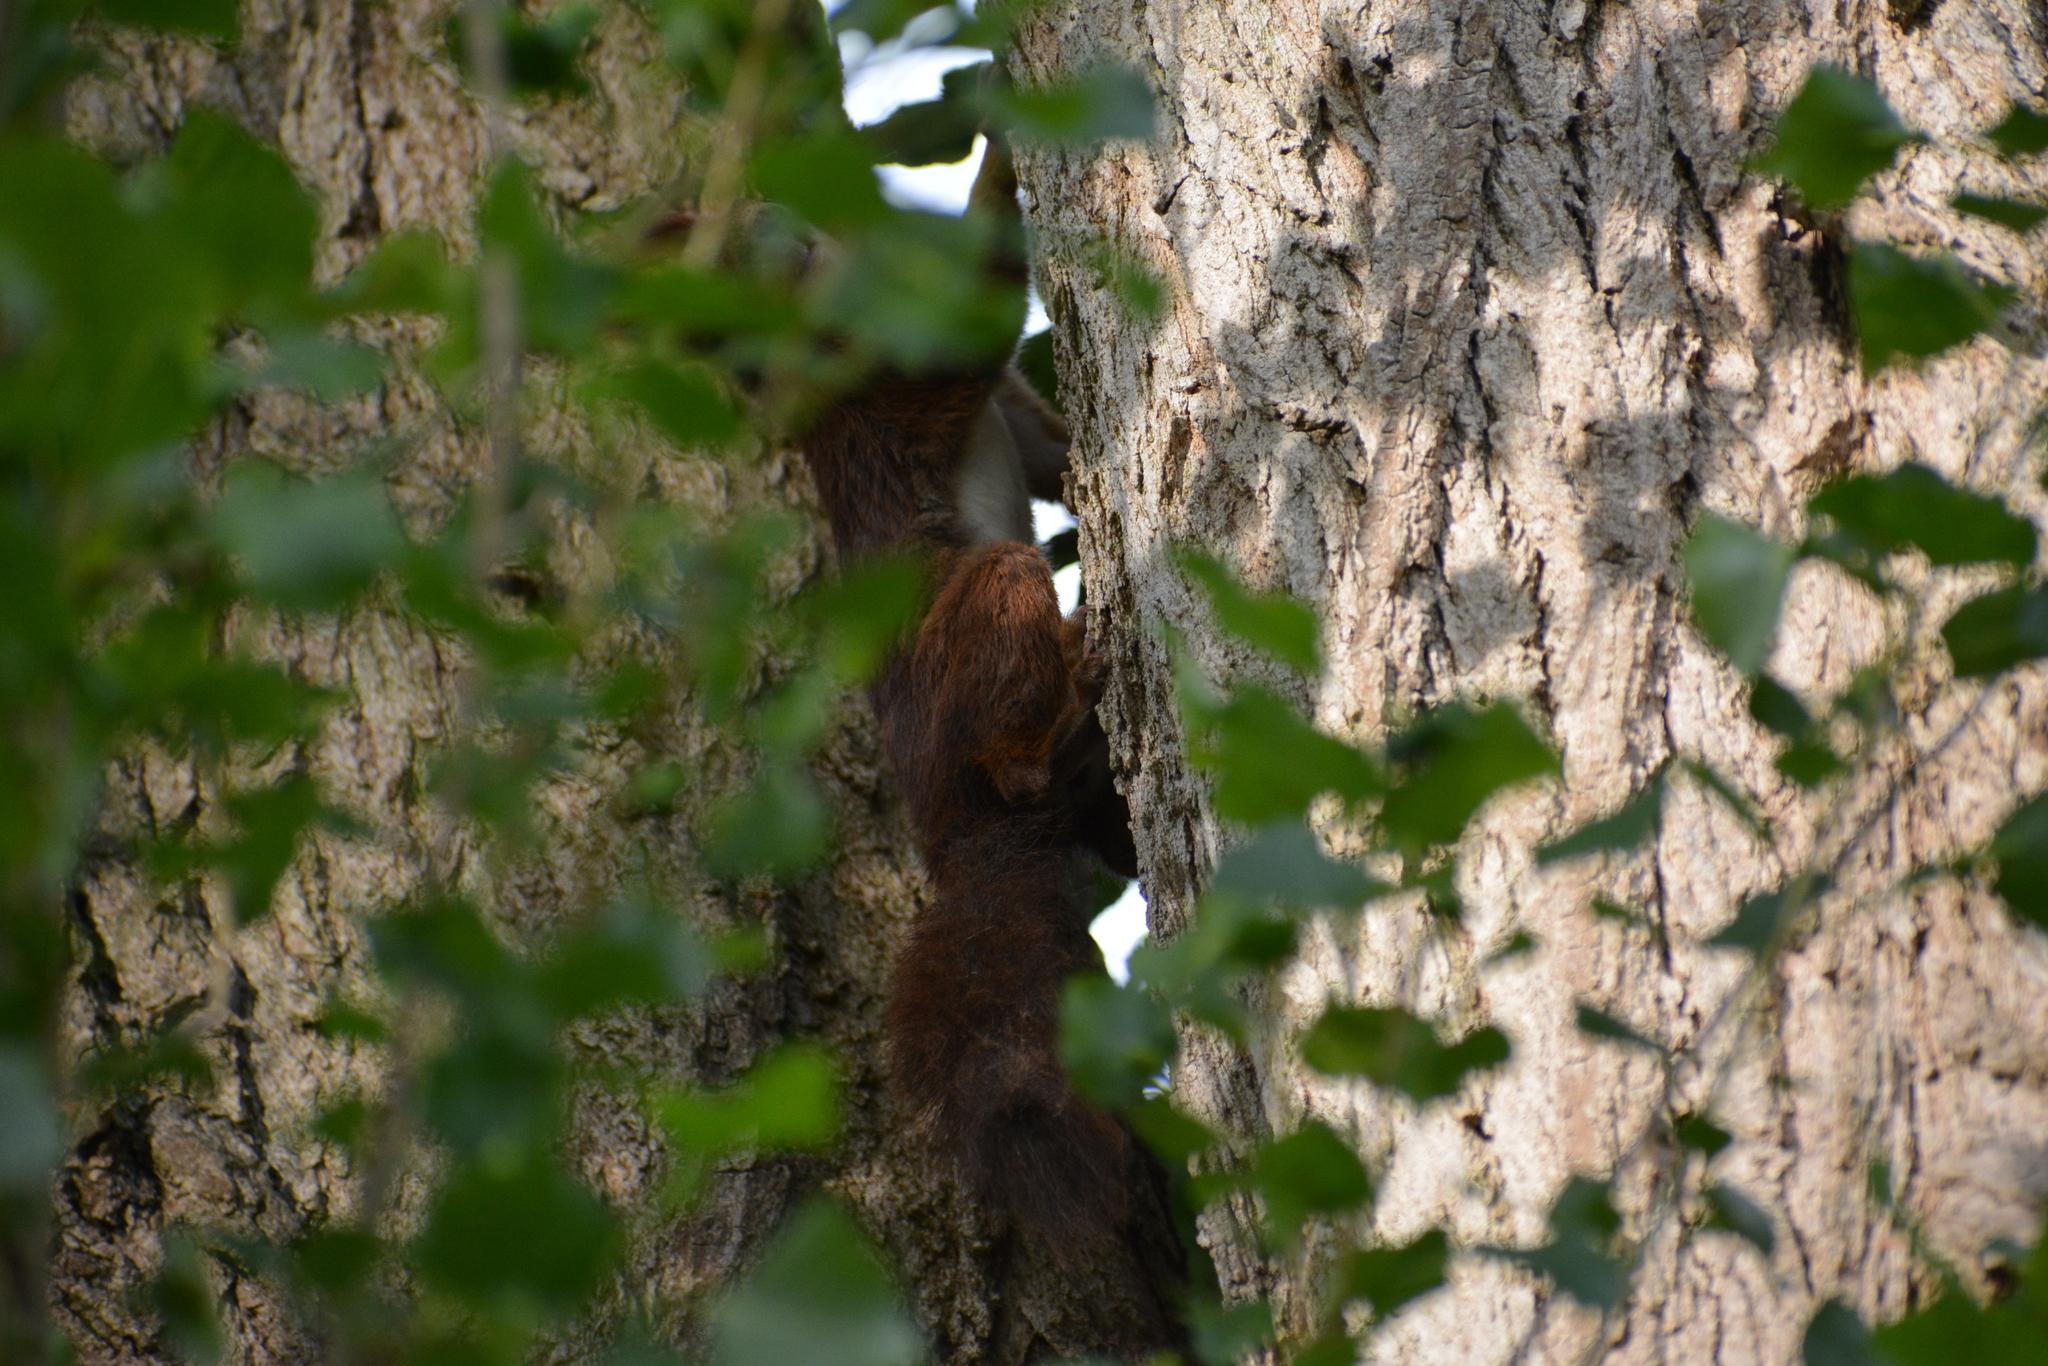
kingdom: Animalia
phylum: Chordata
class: Mammalia
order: Rodentia
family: Sciuridae
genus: Sciurus
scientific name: Sciurus vulgaris
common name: Eurasian red squirrel
